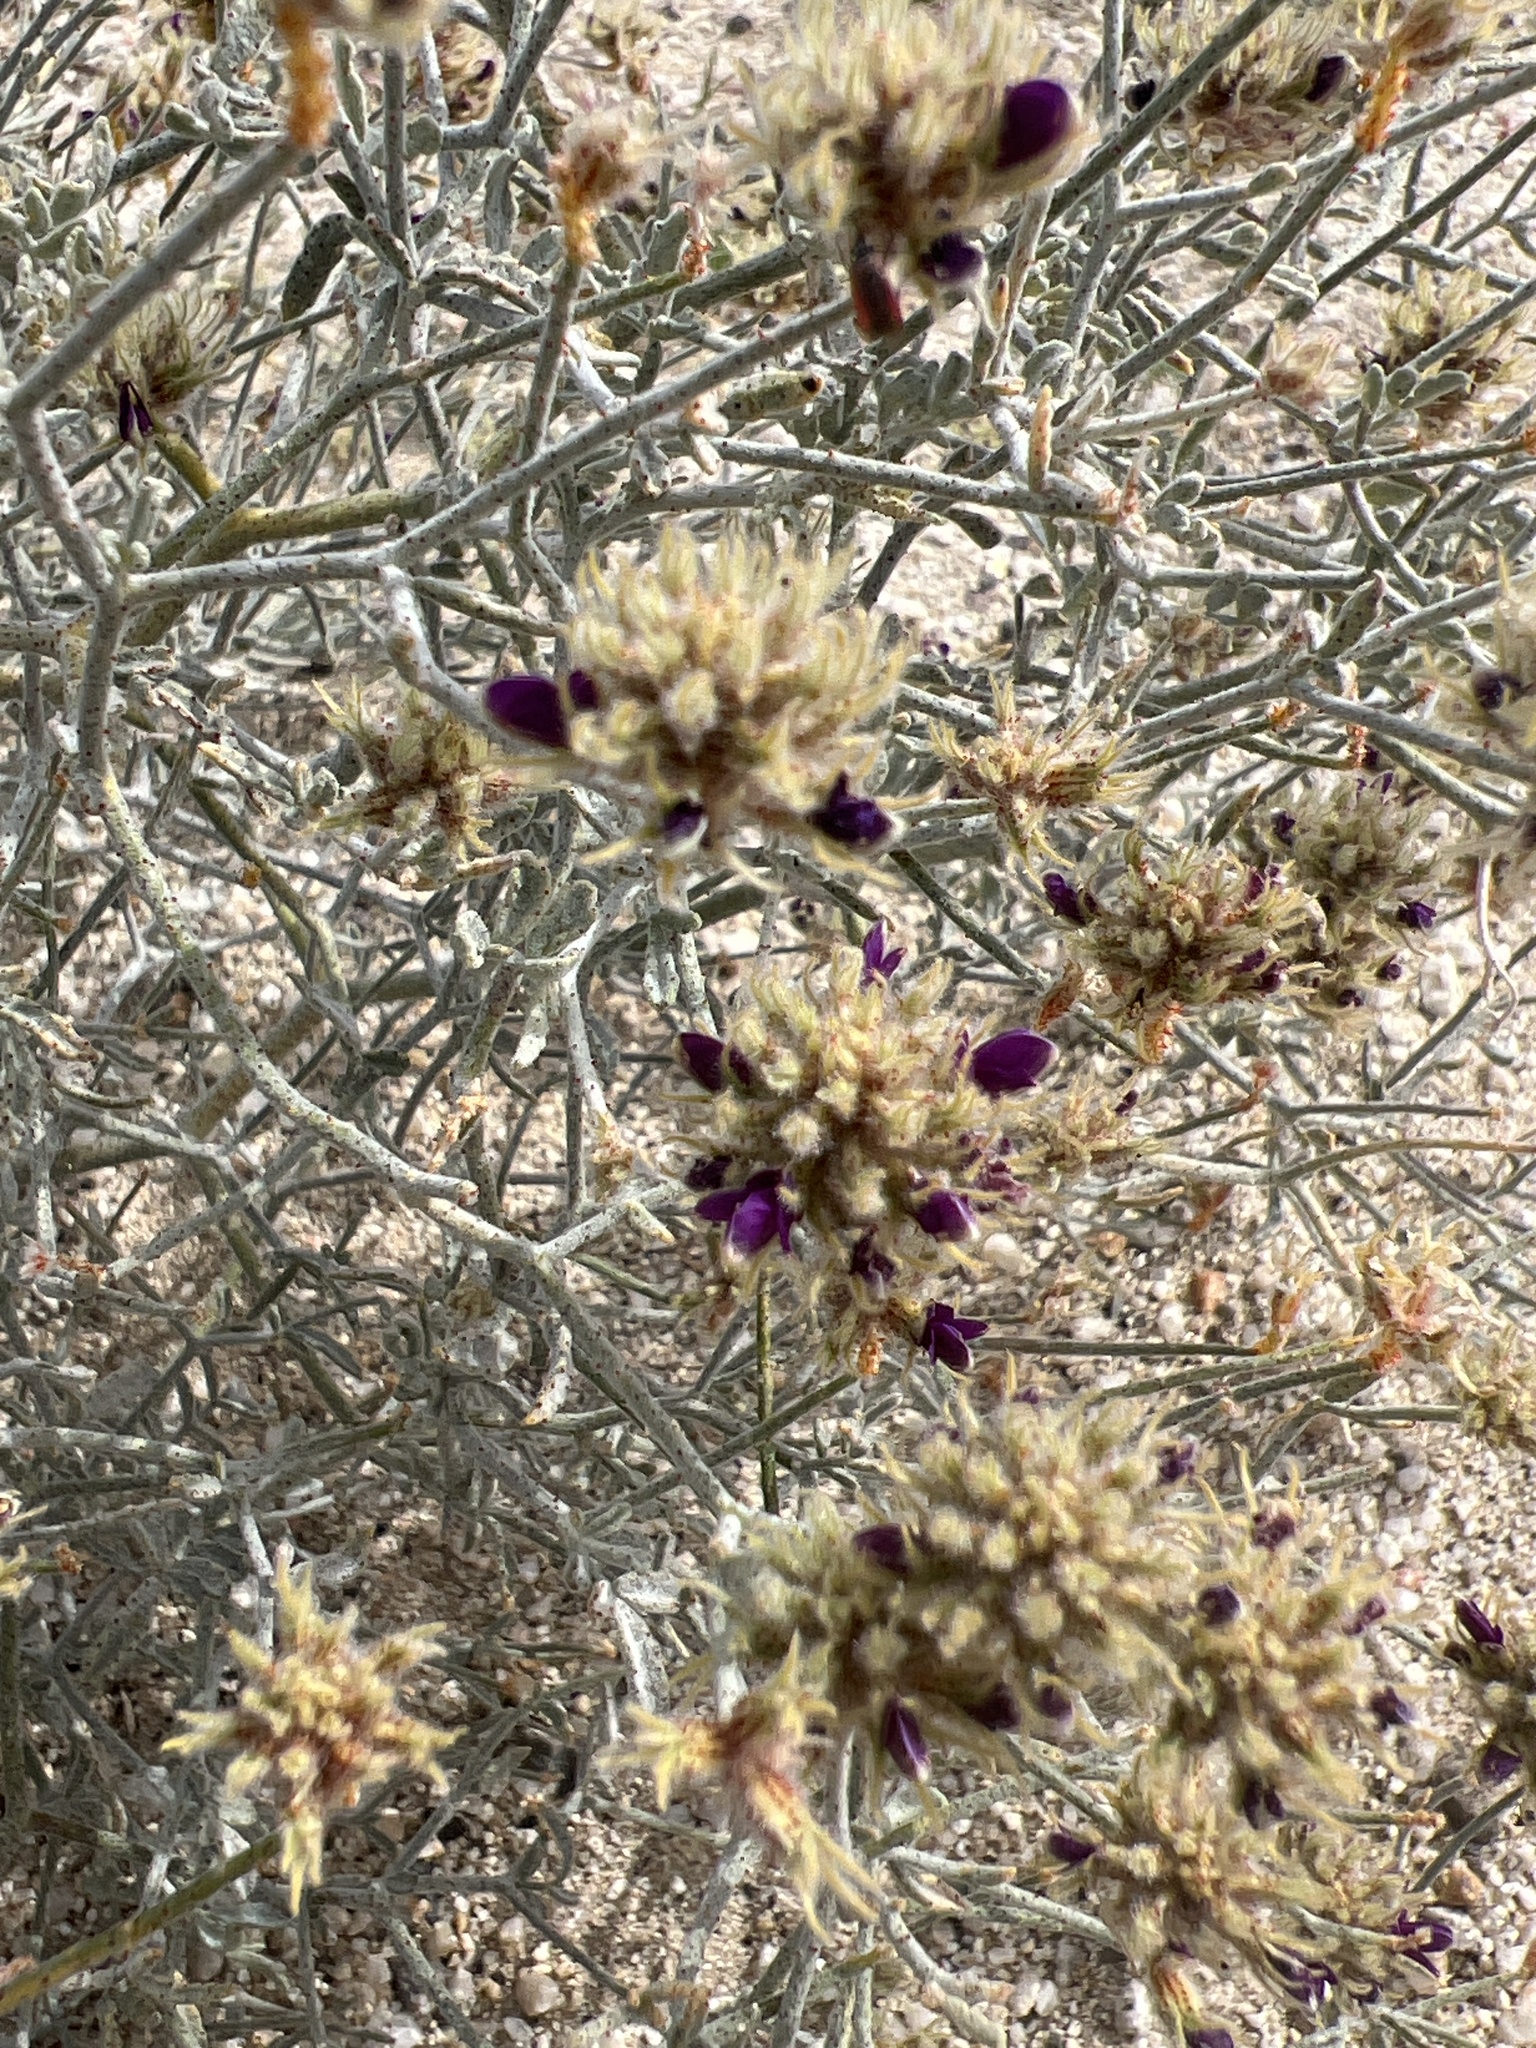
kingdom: Plantae
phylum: Tracheophyta
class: Magnoliopsida
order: Fabales
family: Fabaceae
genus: Psorothamnus
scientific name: Psorothamnus emoryi
